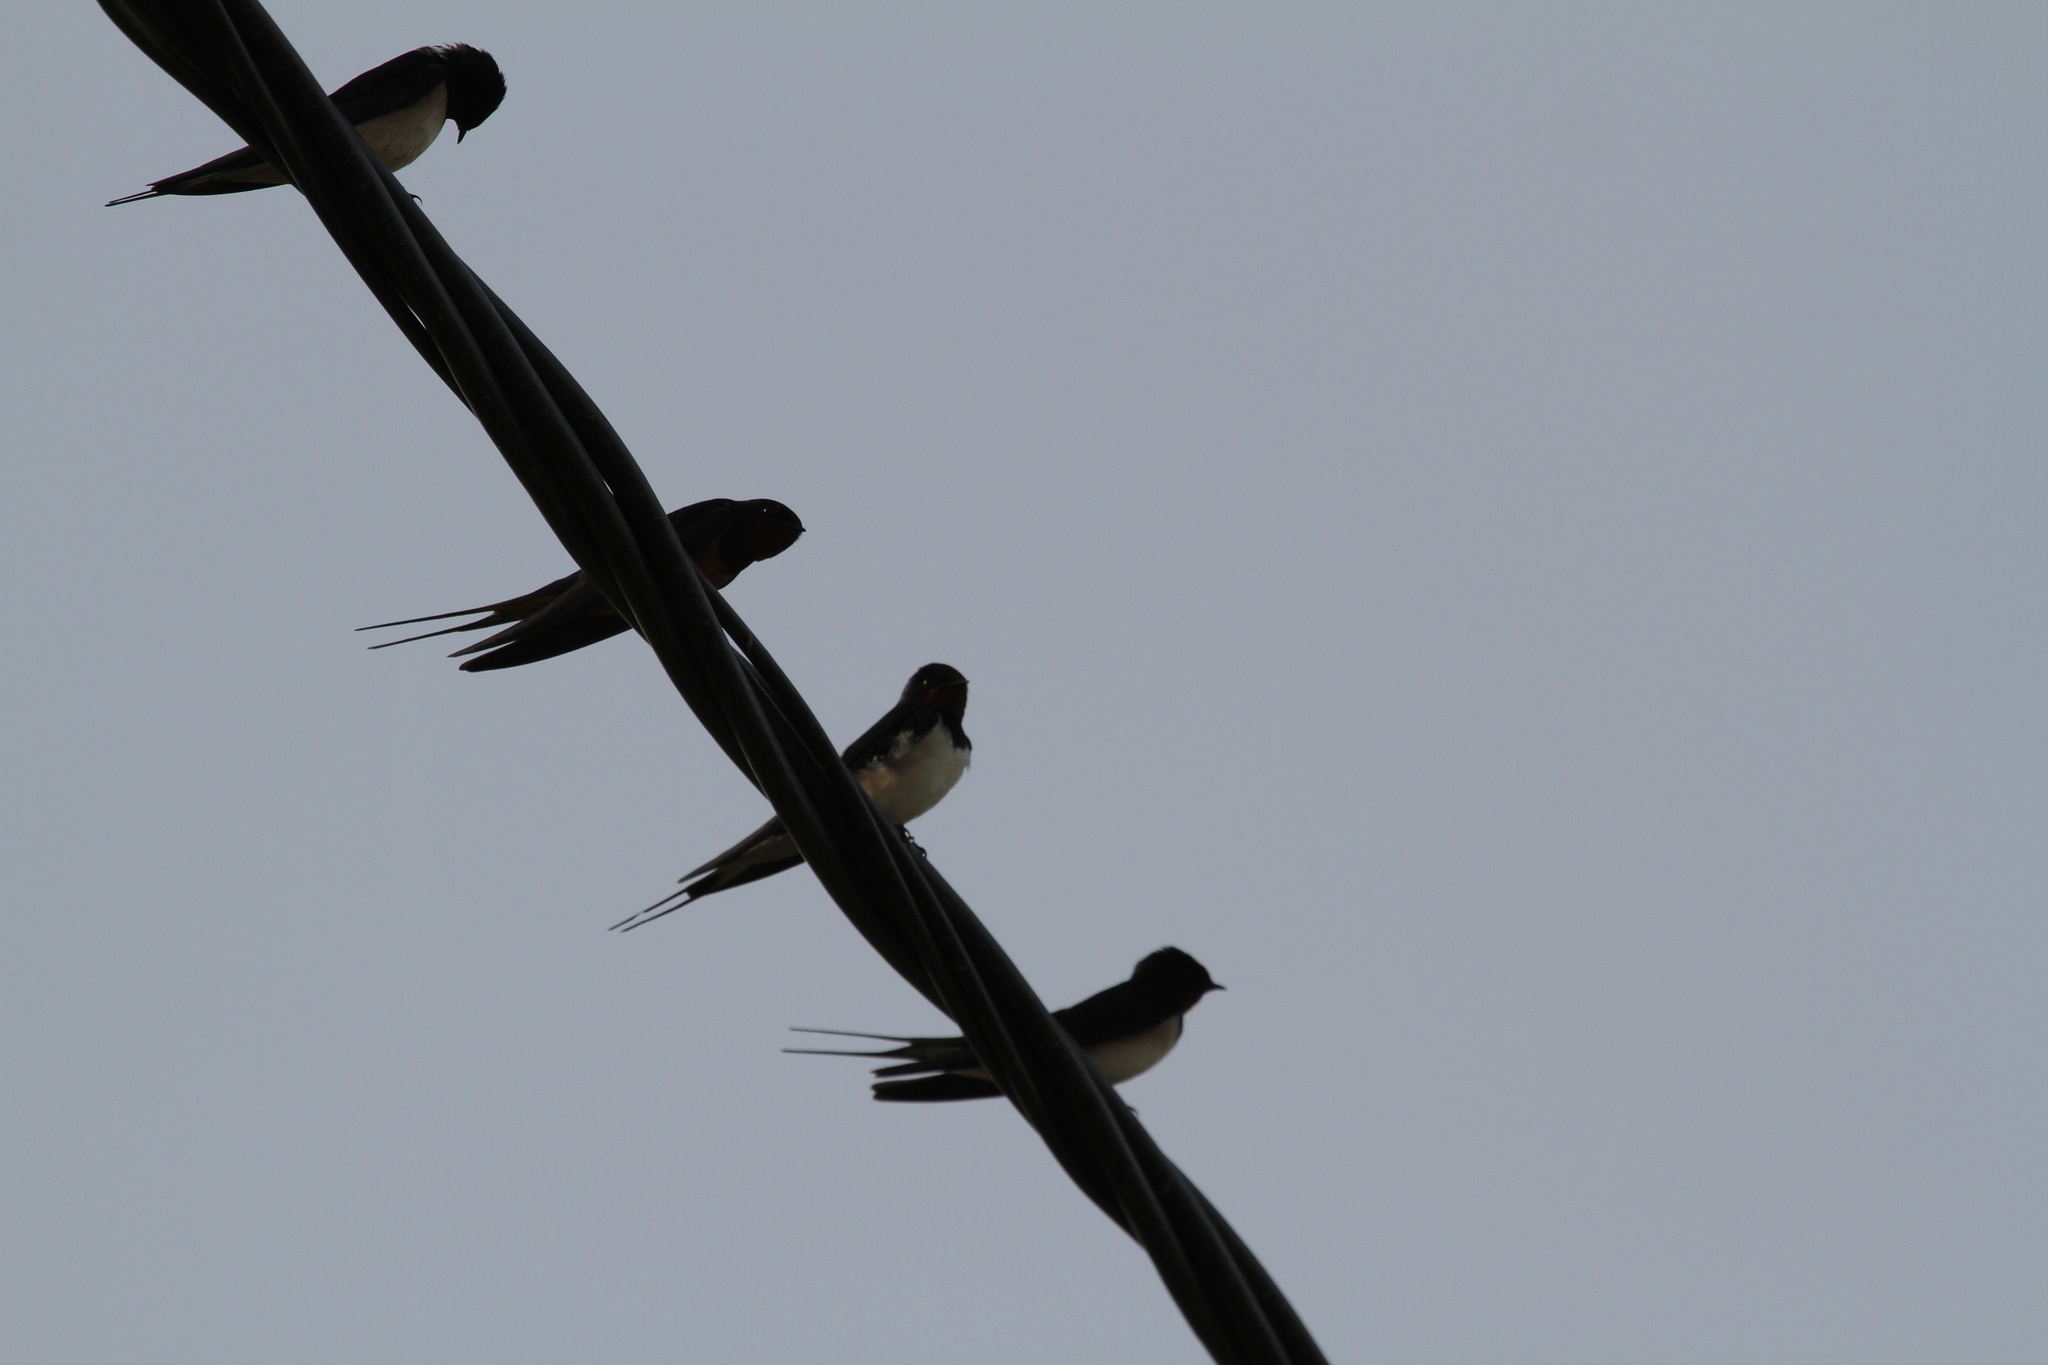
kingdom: Animalia
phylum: Chordata
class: Aves
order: Passeriformes
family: Hirundinidae
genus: Hirundo
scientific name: Hirundo rustica
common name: Barn swallow
